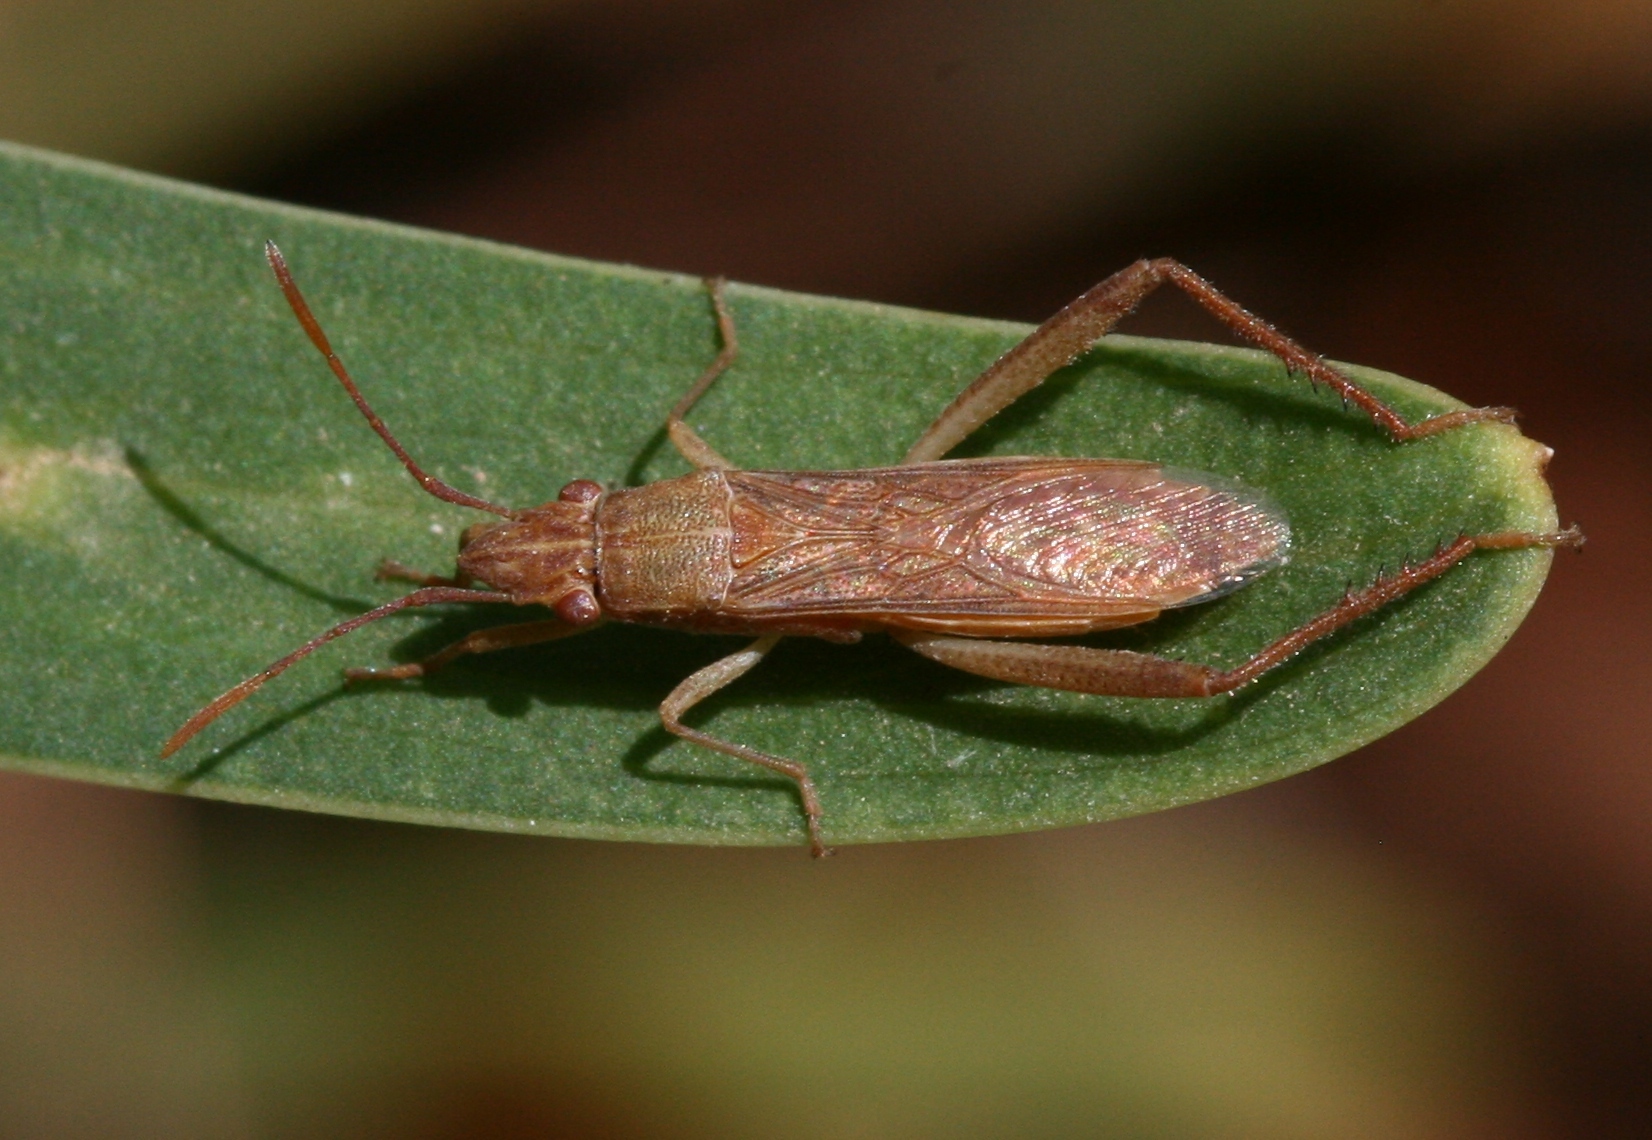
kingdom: Animalia
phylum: Arthropoda
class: Insecta
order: Hemiptera
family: Alydidae
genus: Nemausus
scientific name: Nemausus sordidatus
